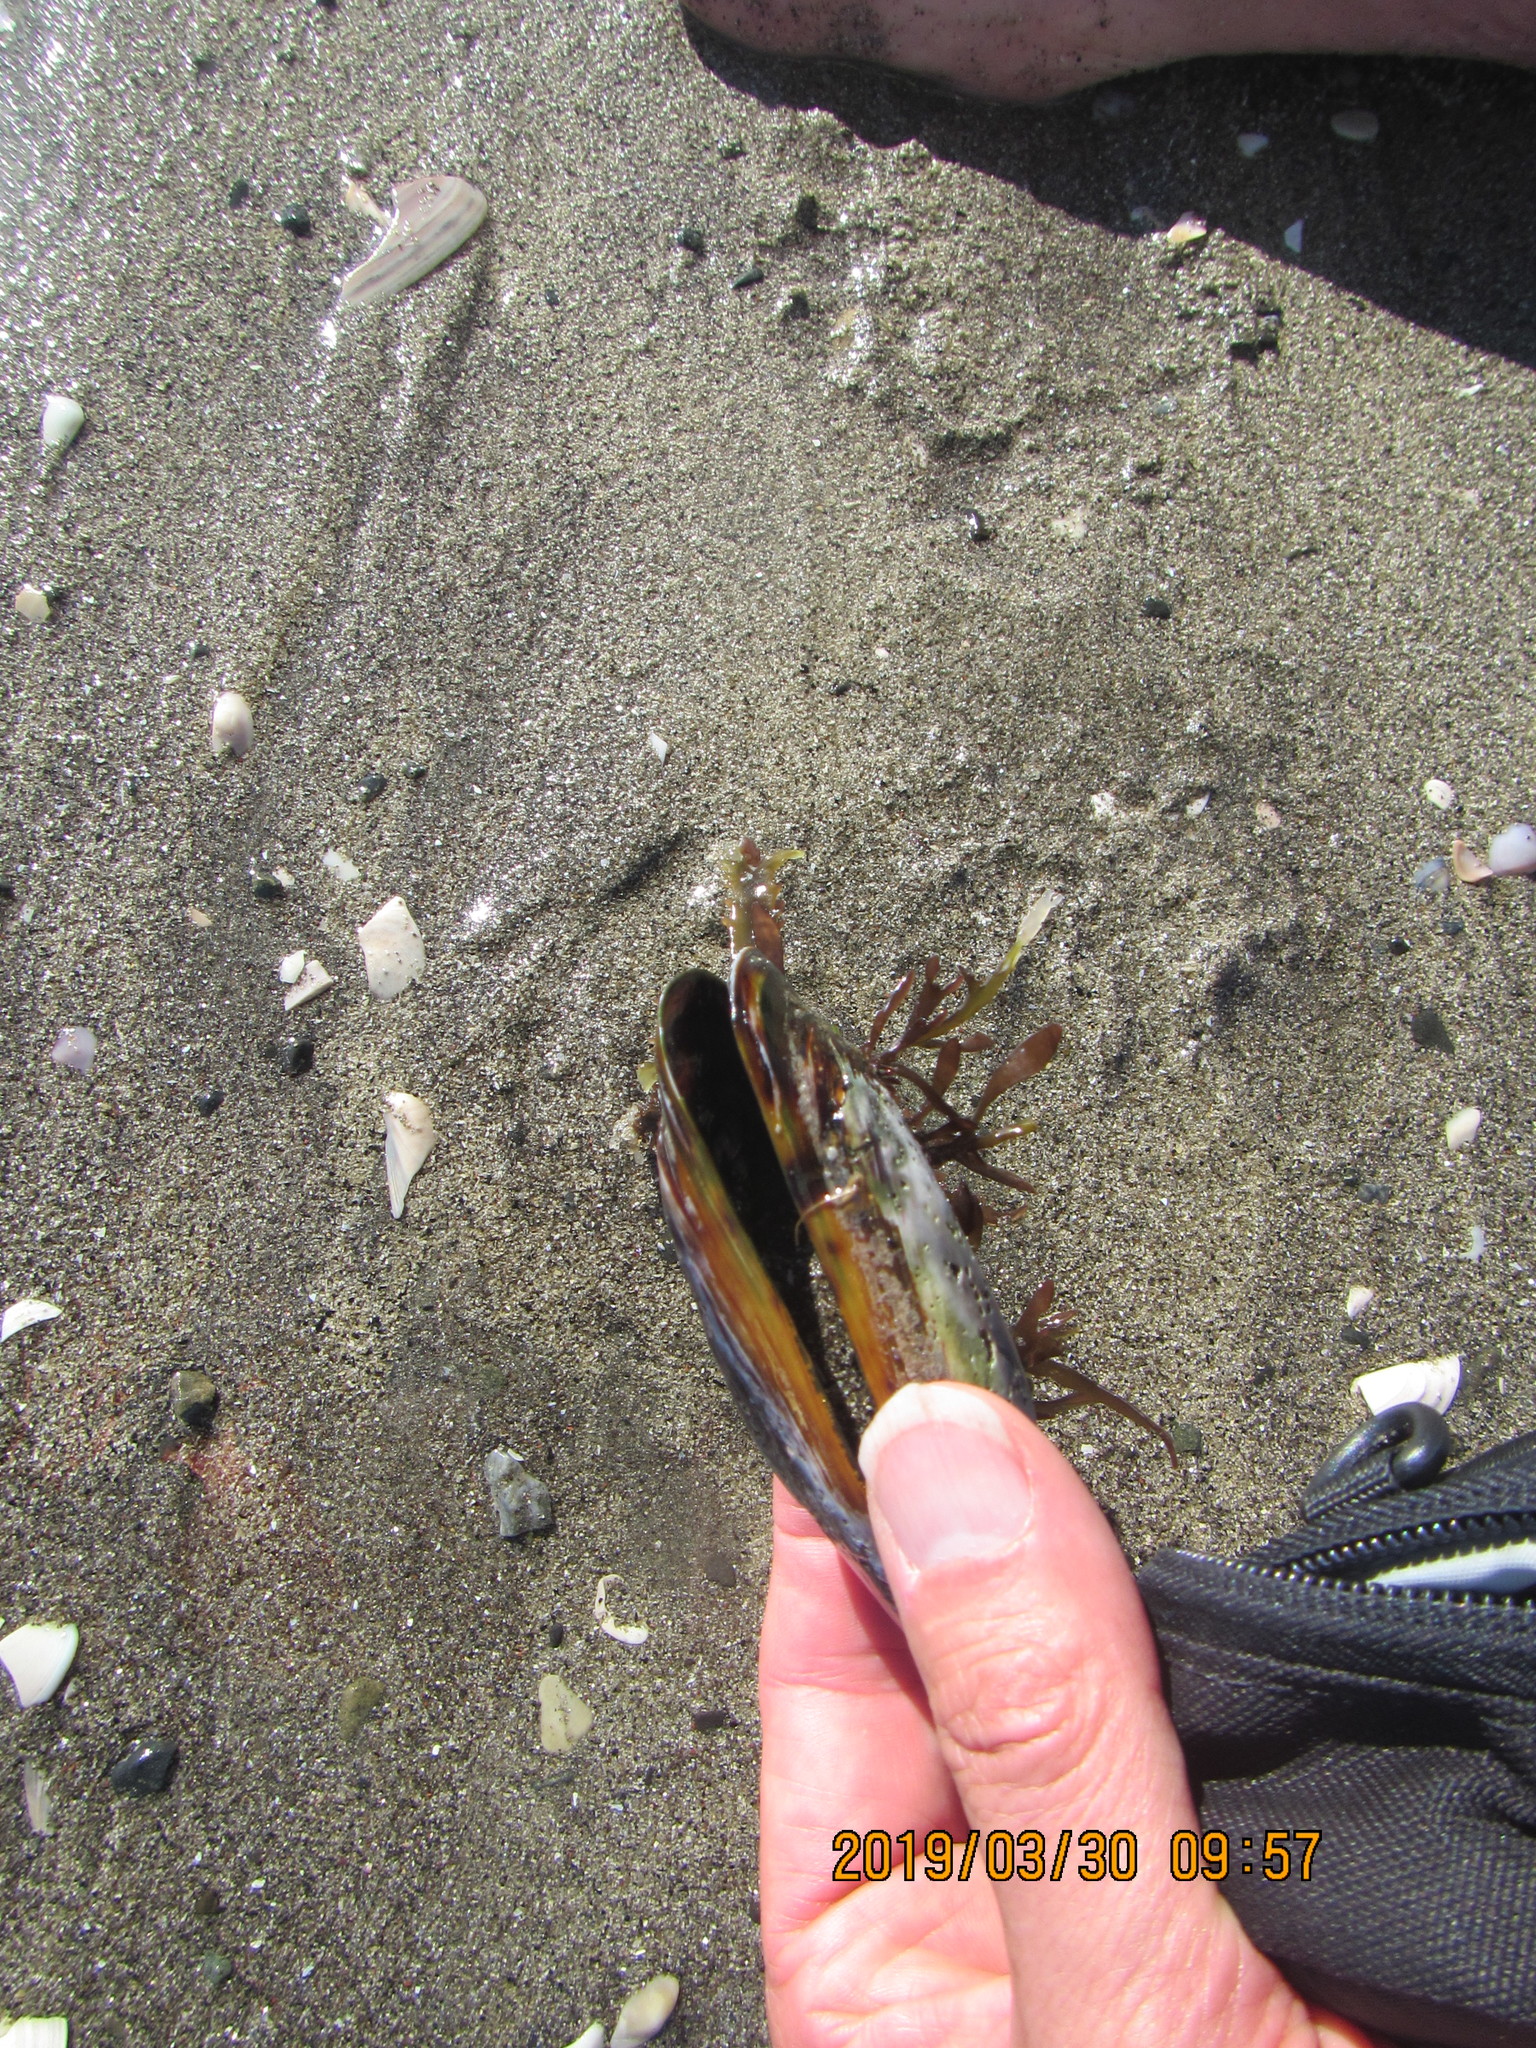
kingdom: Animalia
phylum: Mollusca
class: Bivalvia
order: Mytilida
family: Mytilidae
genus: Perna
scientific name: Perna canaliculus
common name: New zealand greenshelltm
